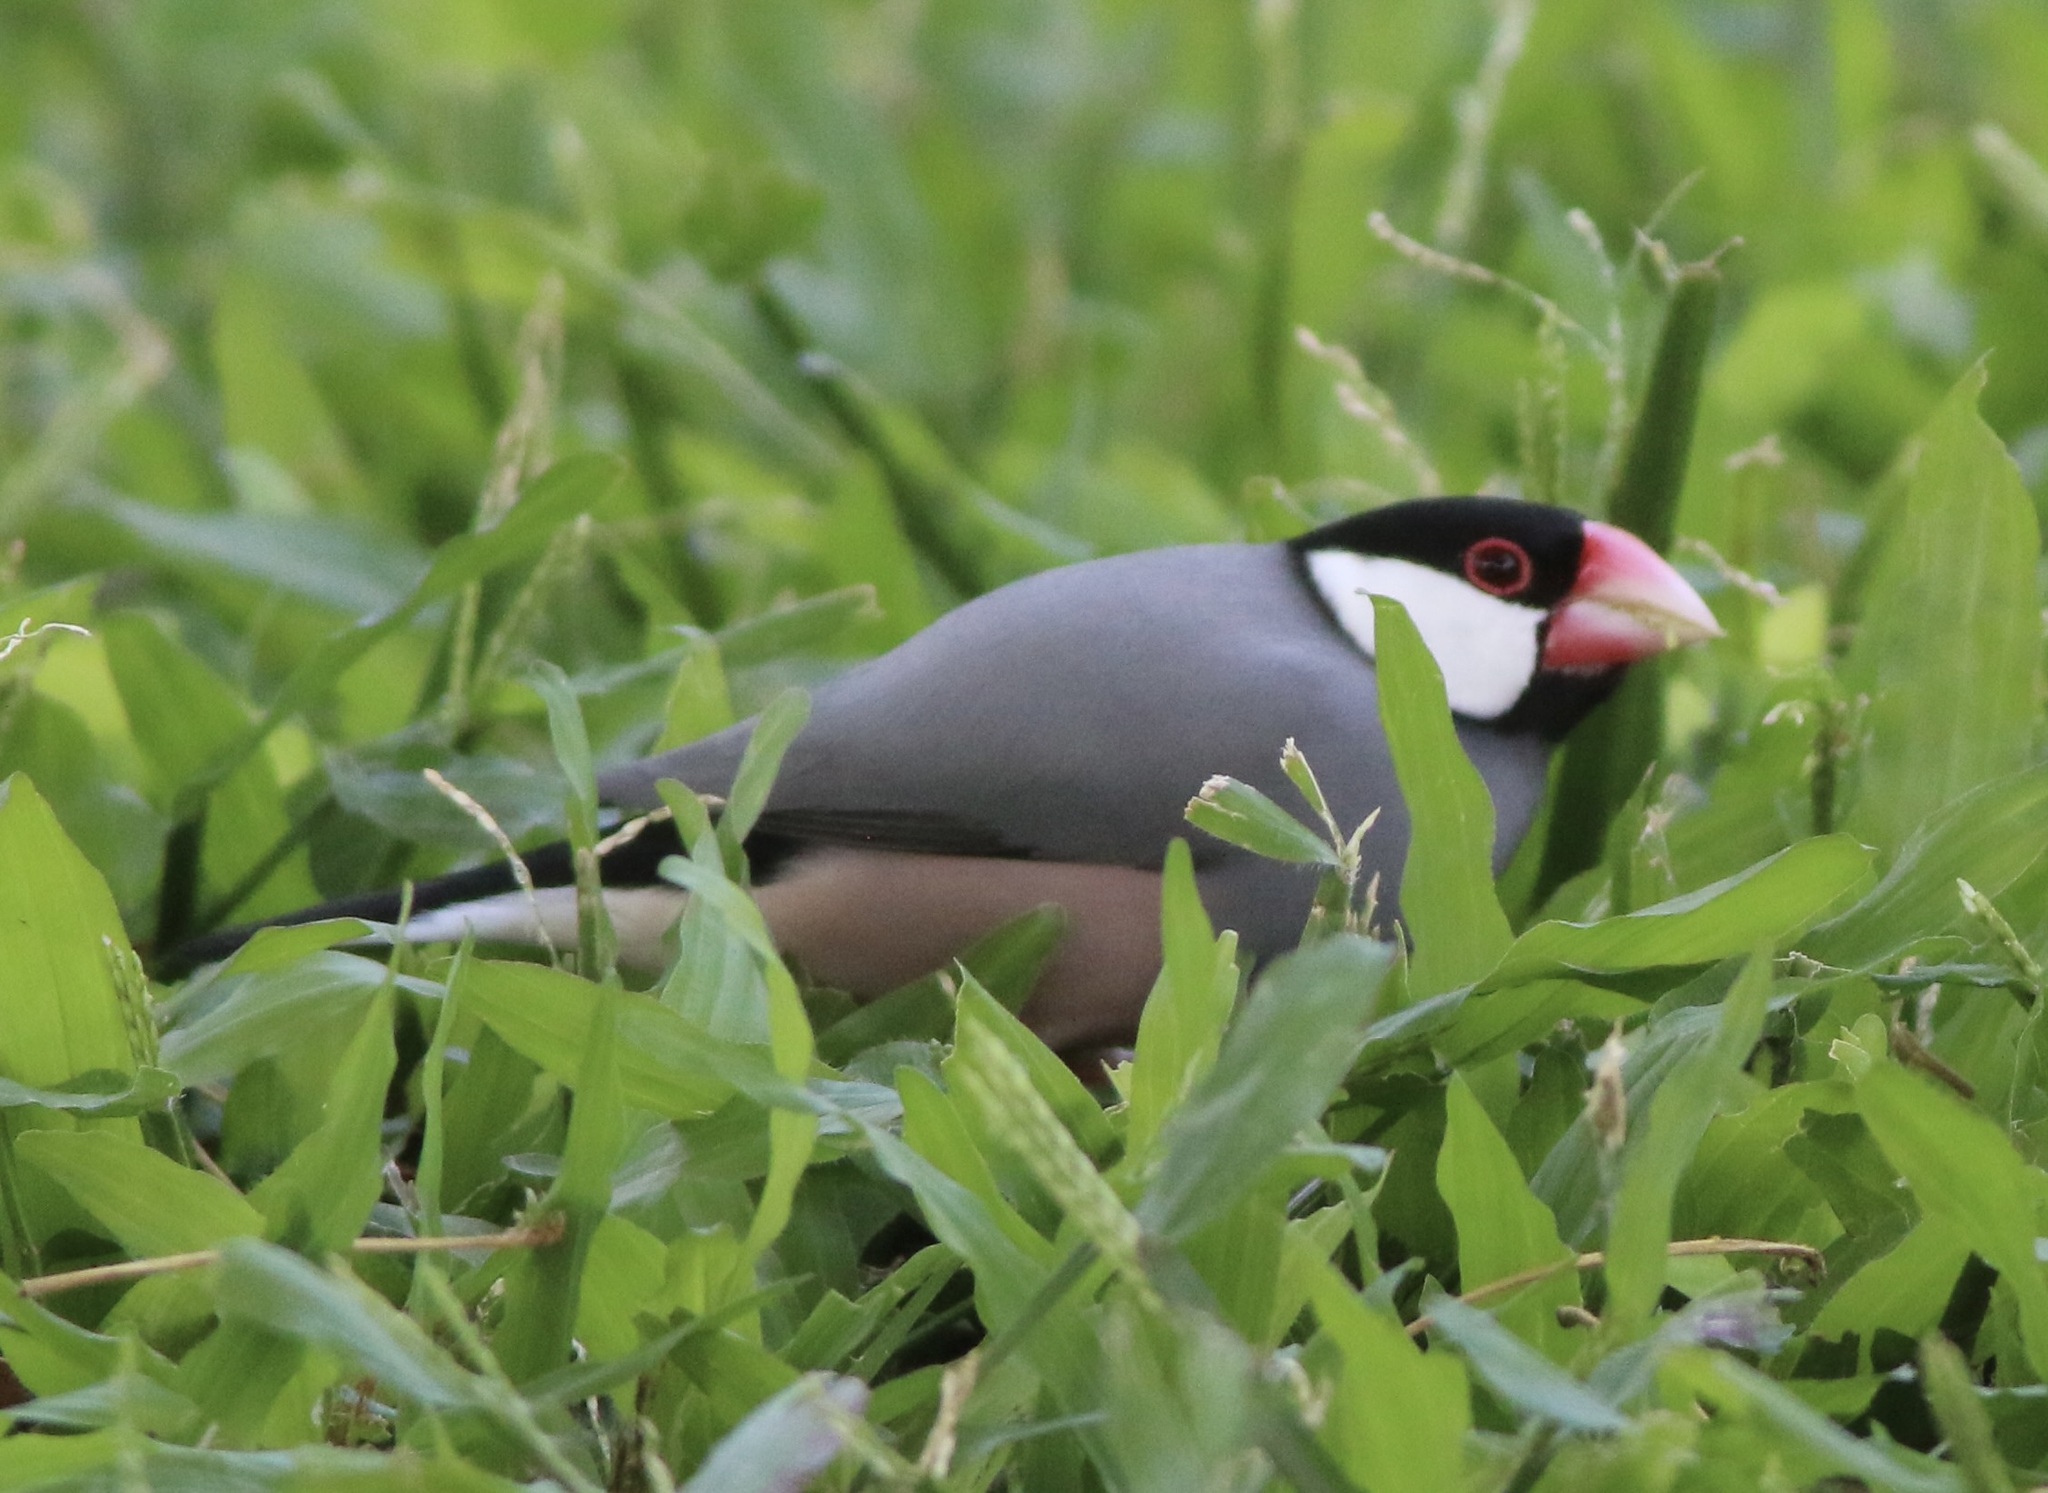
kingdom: Animalia
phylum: Chordata
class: Aves
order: Passeriformes
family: Estrildidae
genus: Lonchura
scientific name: Lonchura oryzivora
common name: Java sparrow
